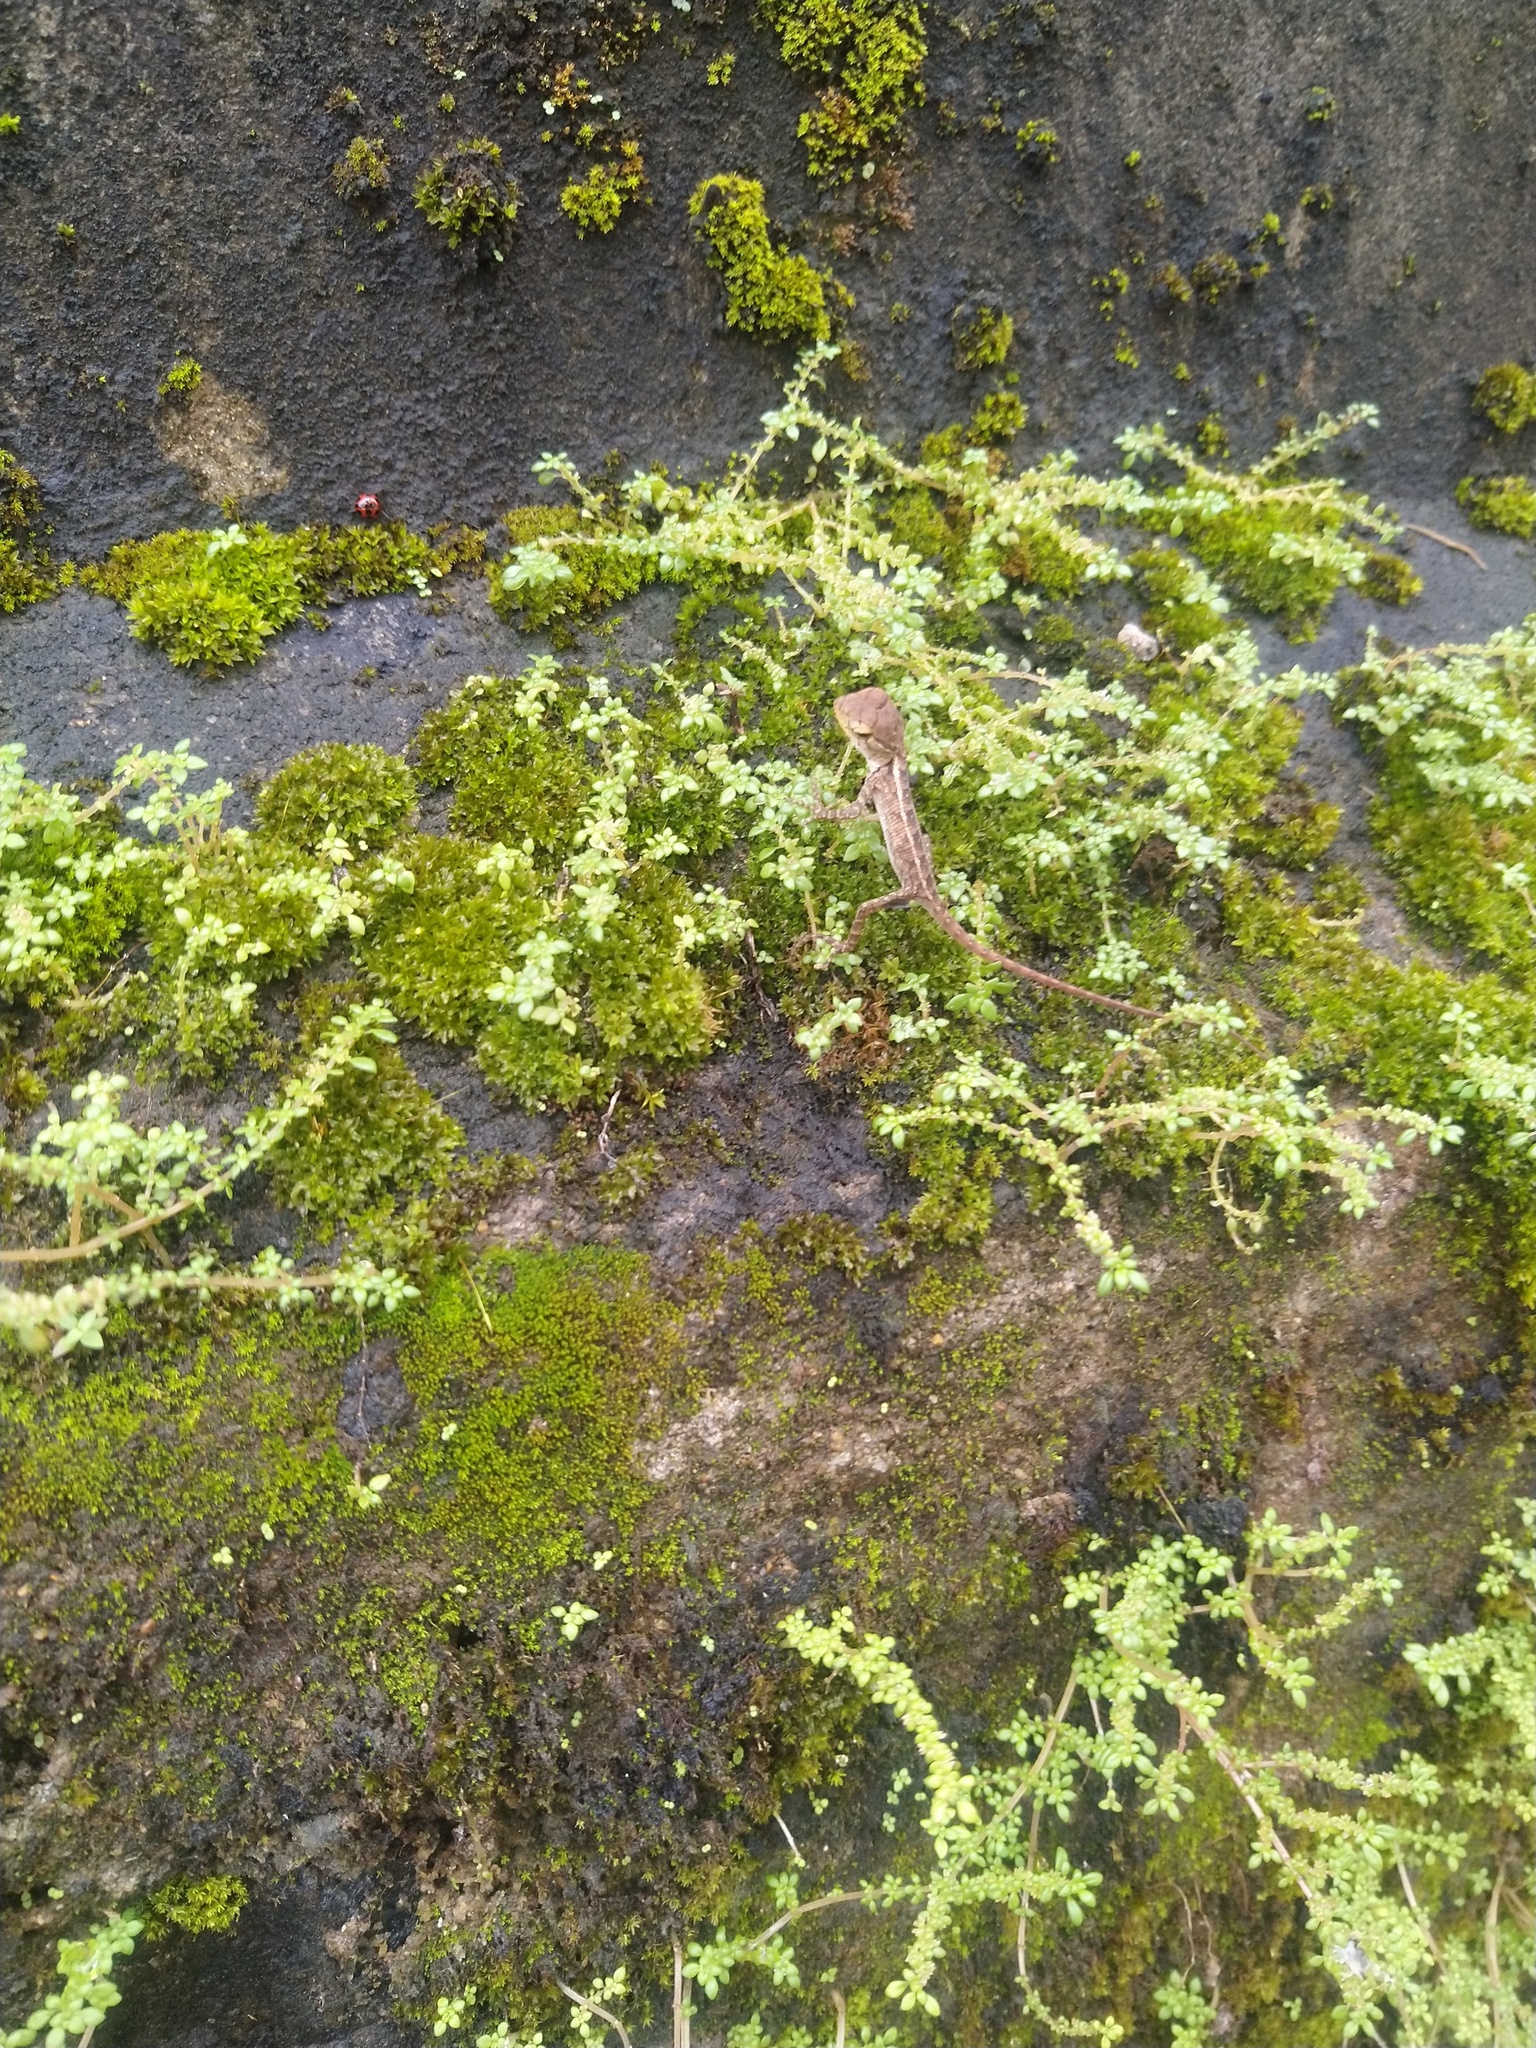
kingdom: Animalia
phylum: Chordata
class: Squamata
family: Agamidae
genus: Calotes
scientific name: Calotes versicolor
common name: Oriental garden lizard
